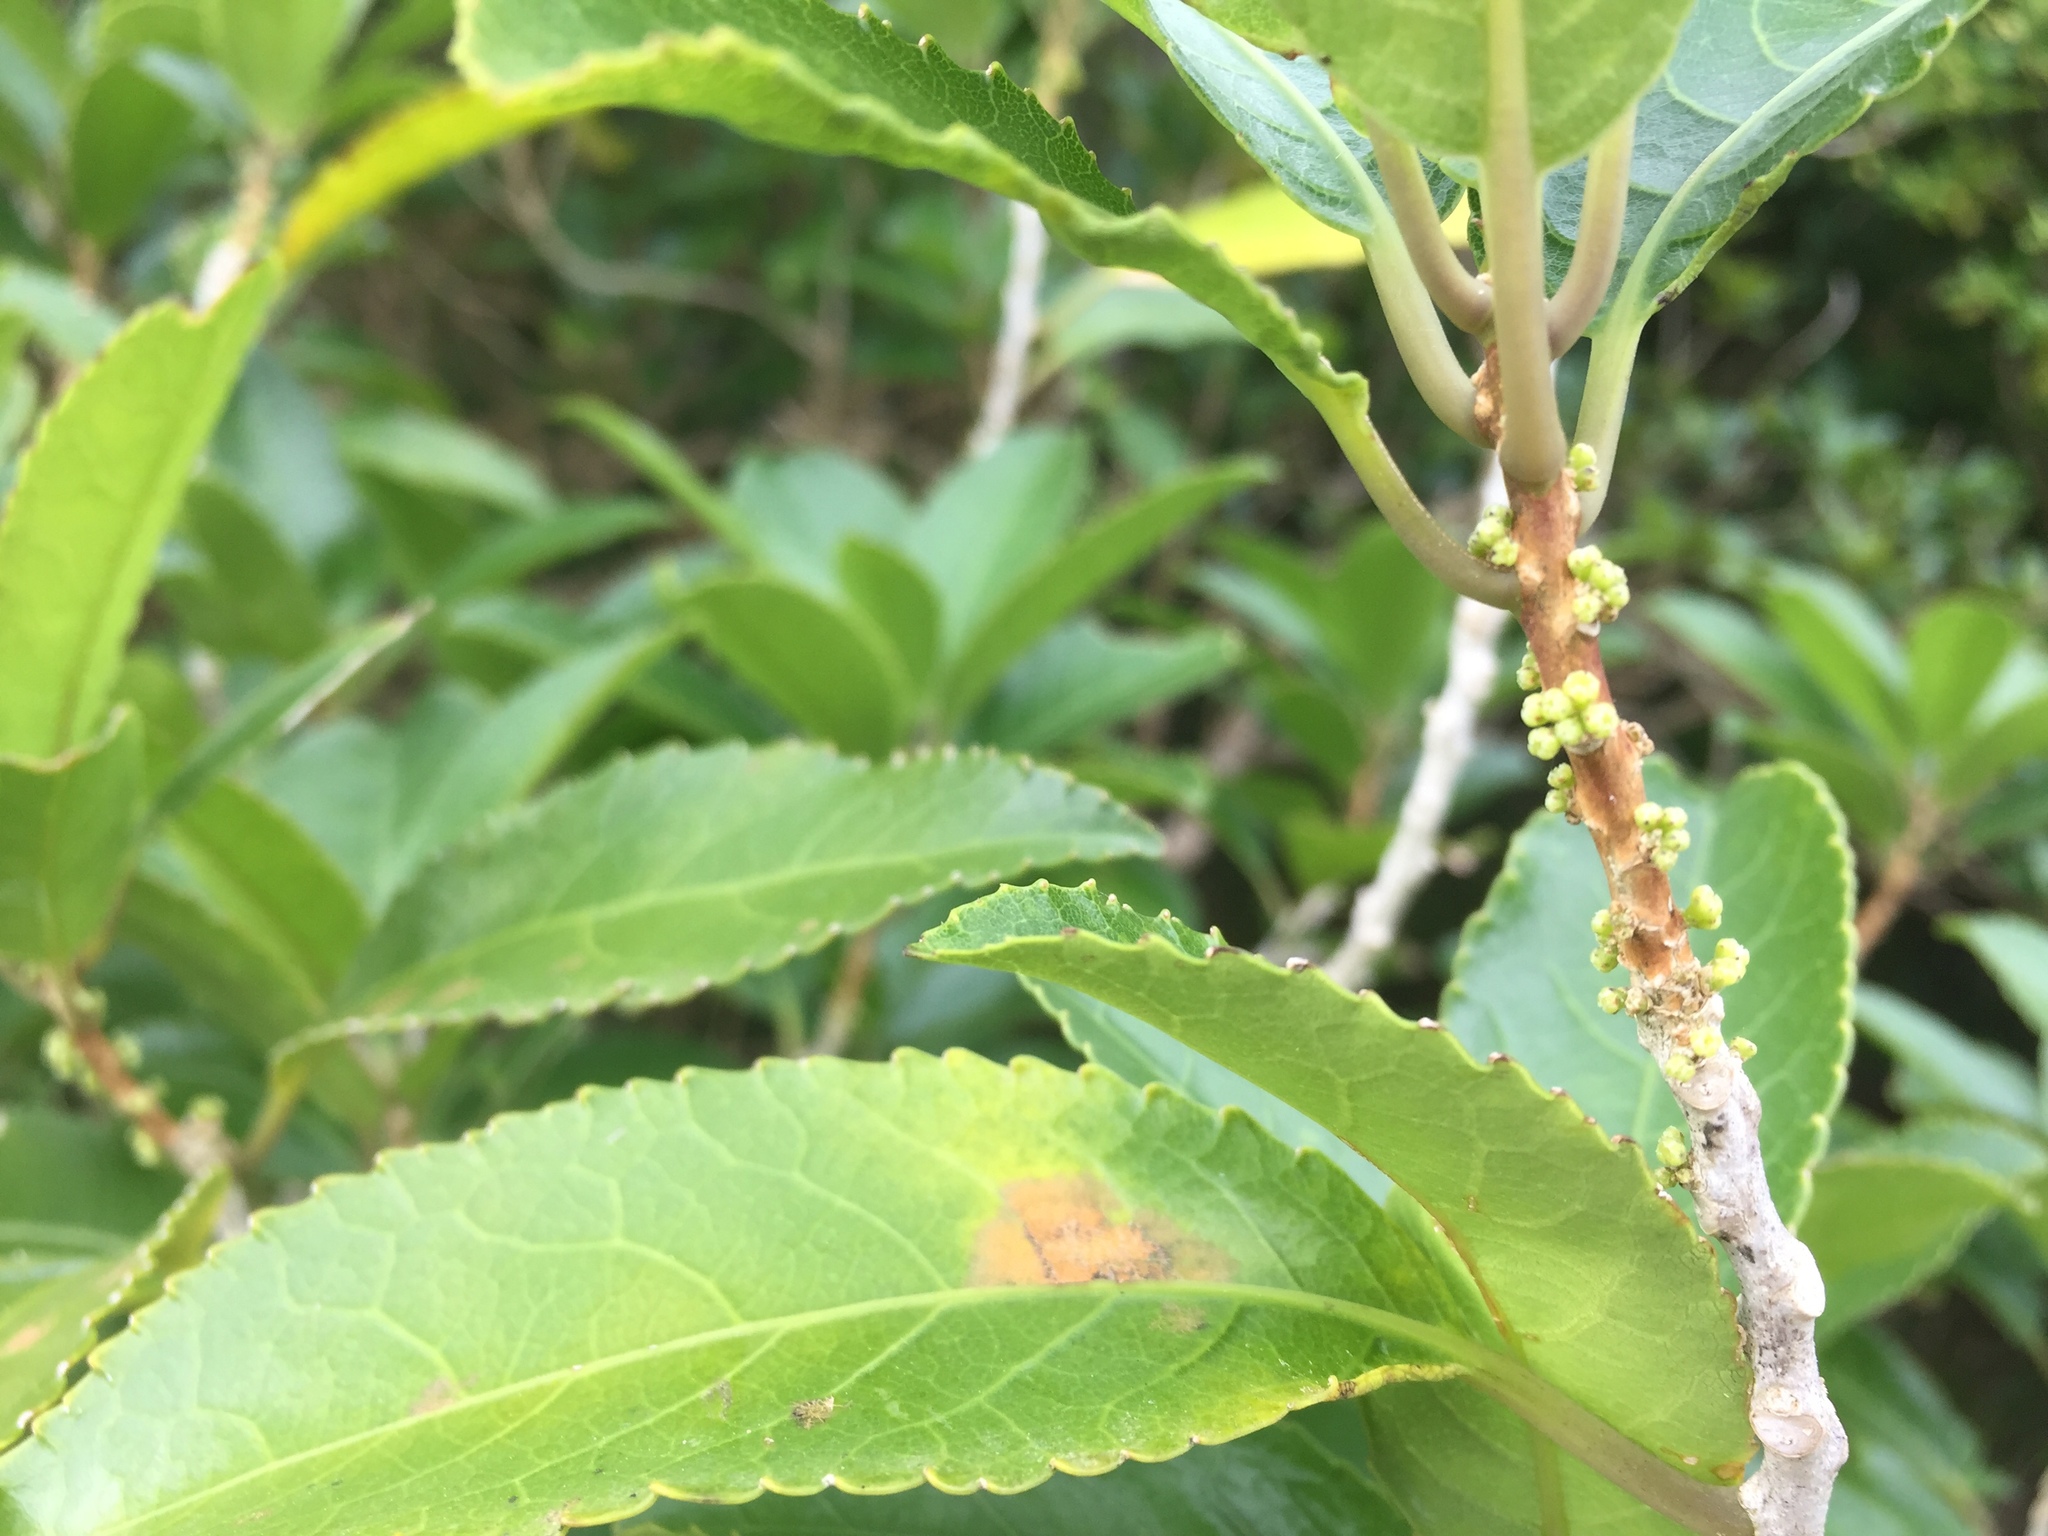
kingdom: Plantae
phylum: Tracheophyta
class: Magnoliopsida
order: Malpighiales
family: Violaceae
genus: Melicytus
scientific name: Melicytus ramiflorus
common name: Mahoe
